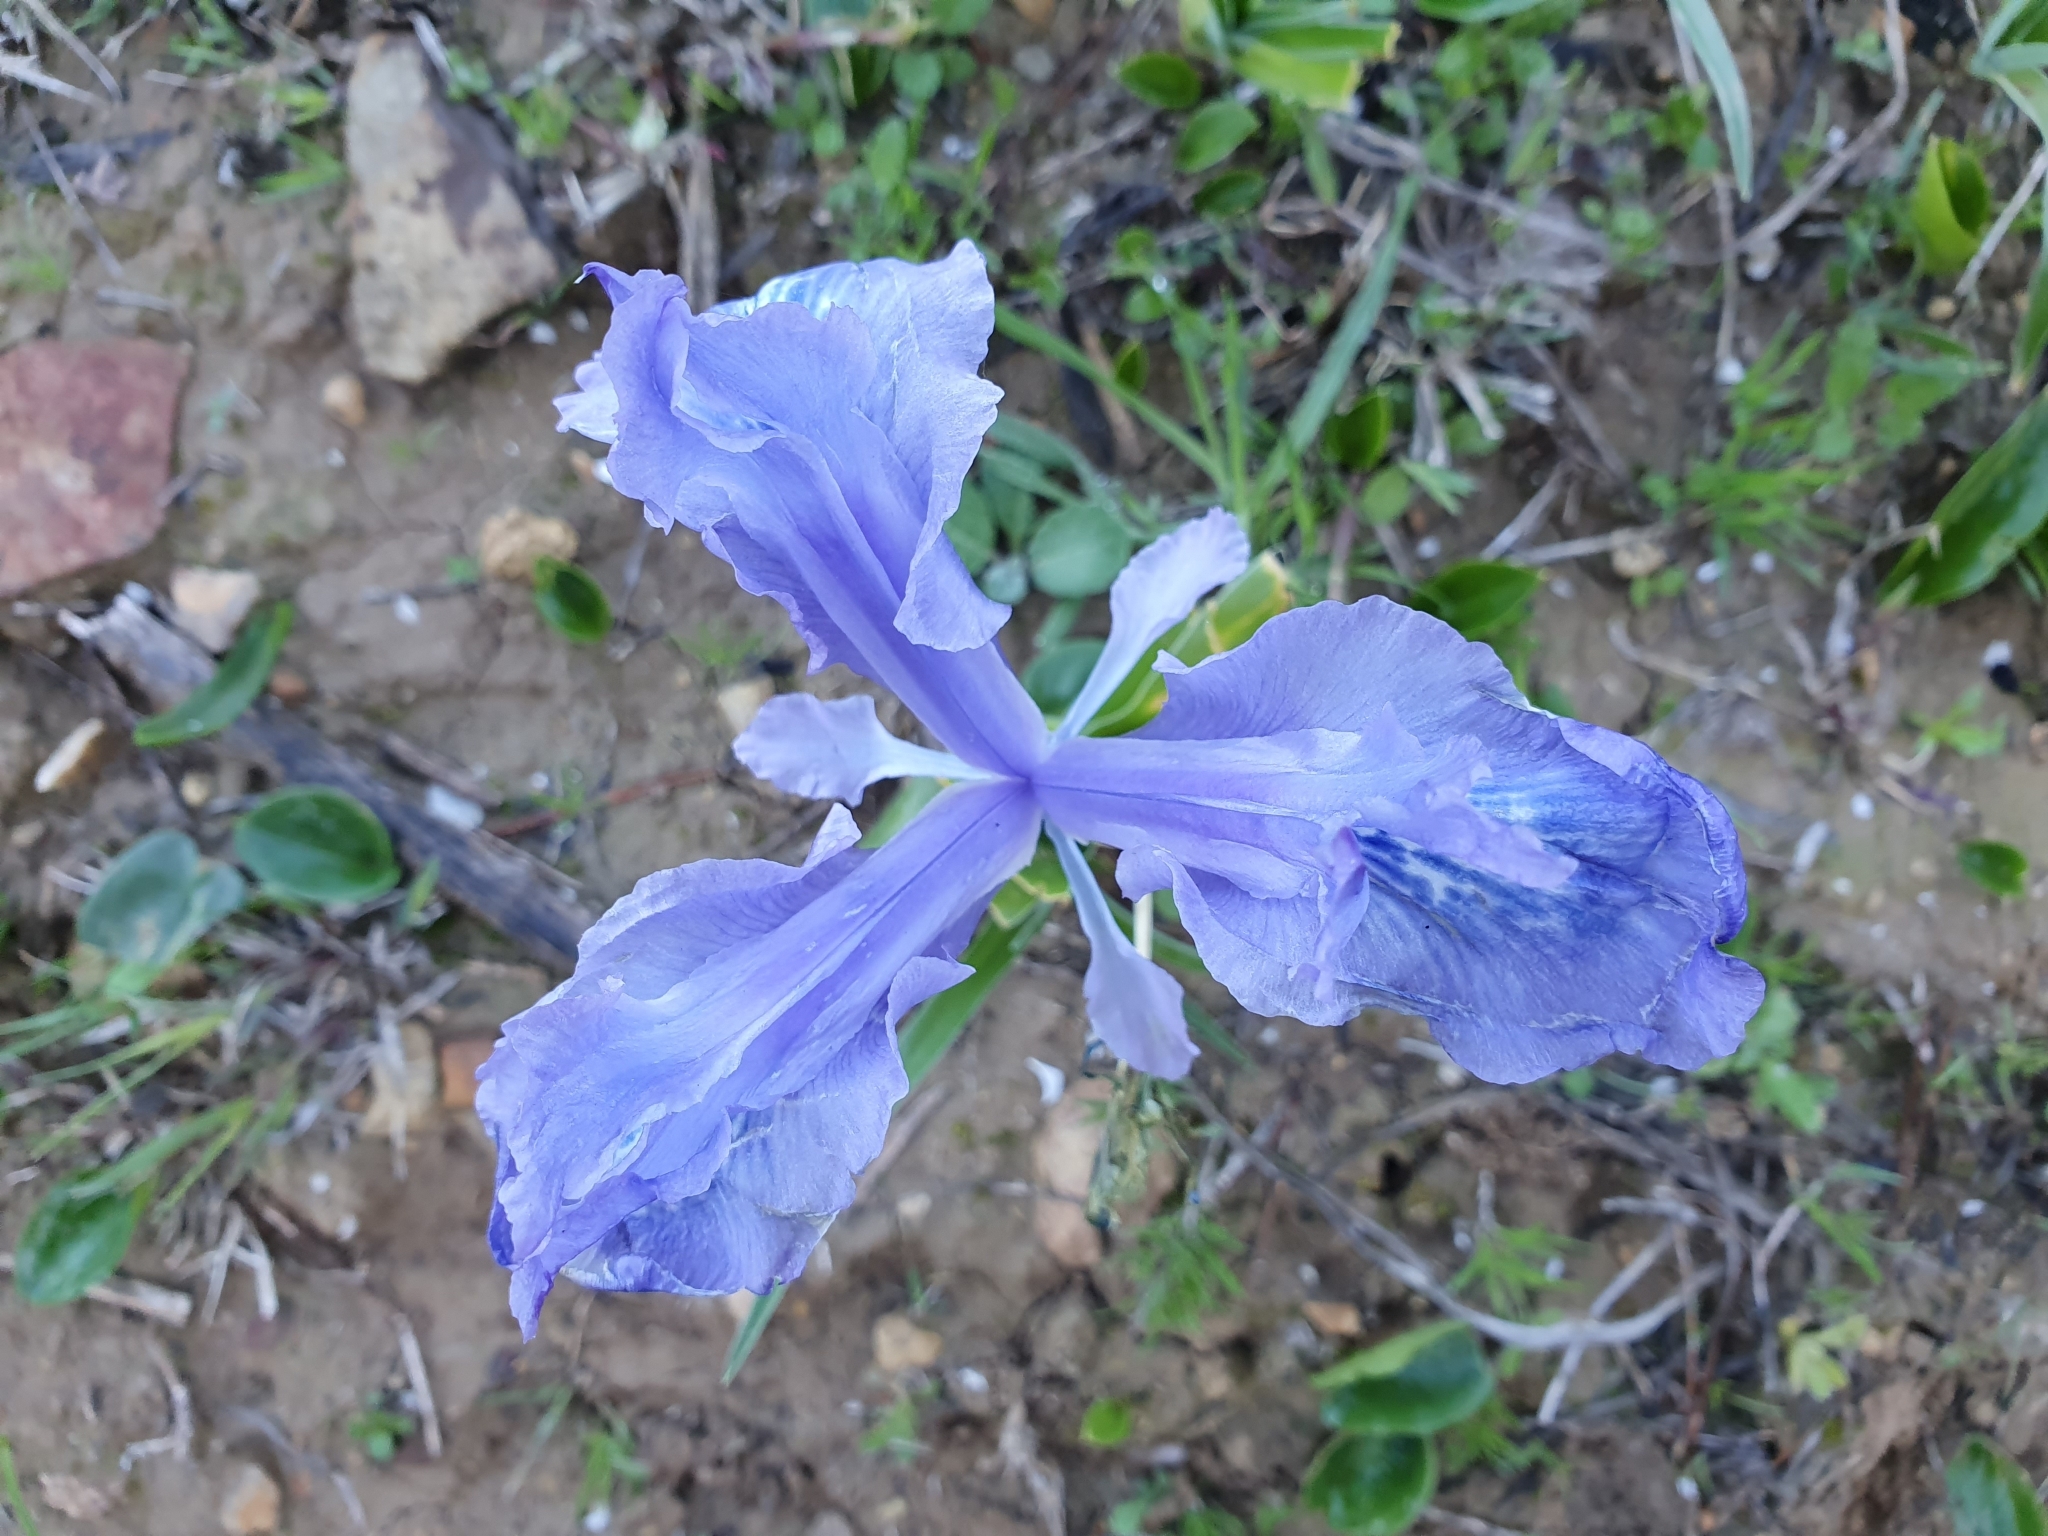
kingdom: Plantae
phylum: Tracheophyta
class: Liliopsida
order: Asparagales
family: Iridaceae
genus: Iris
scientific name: Iris planifolia
